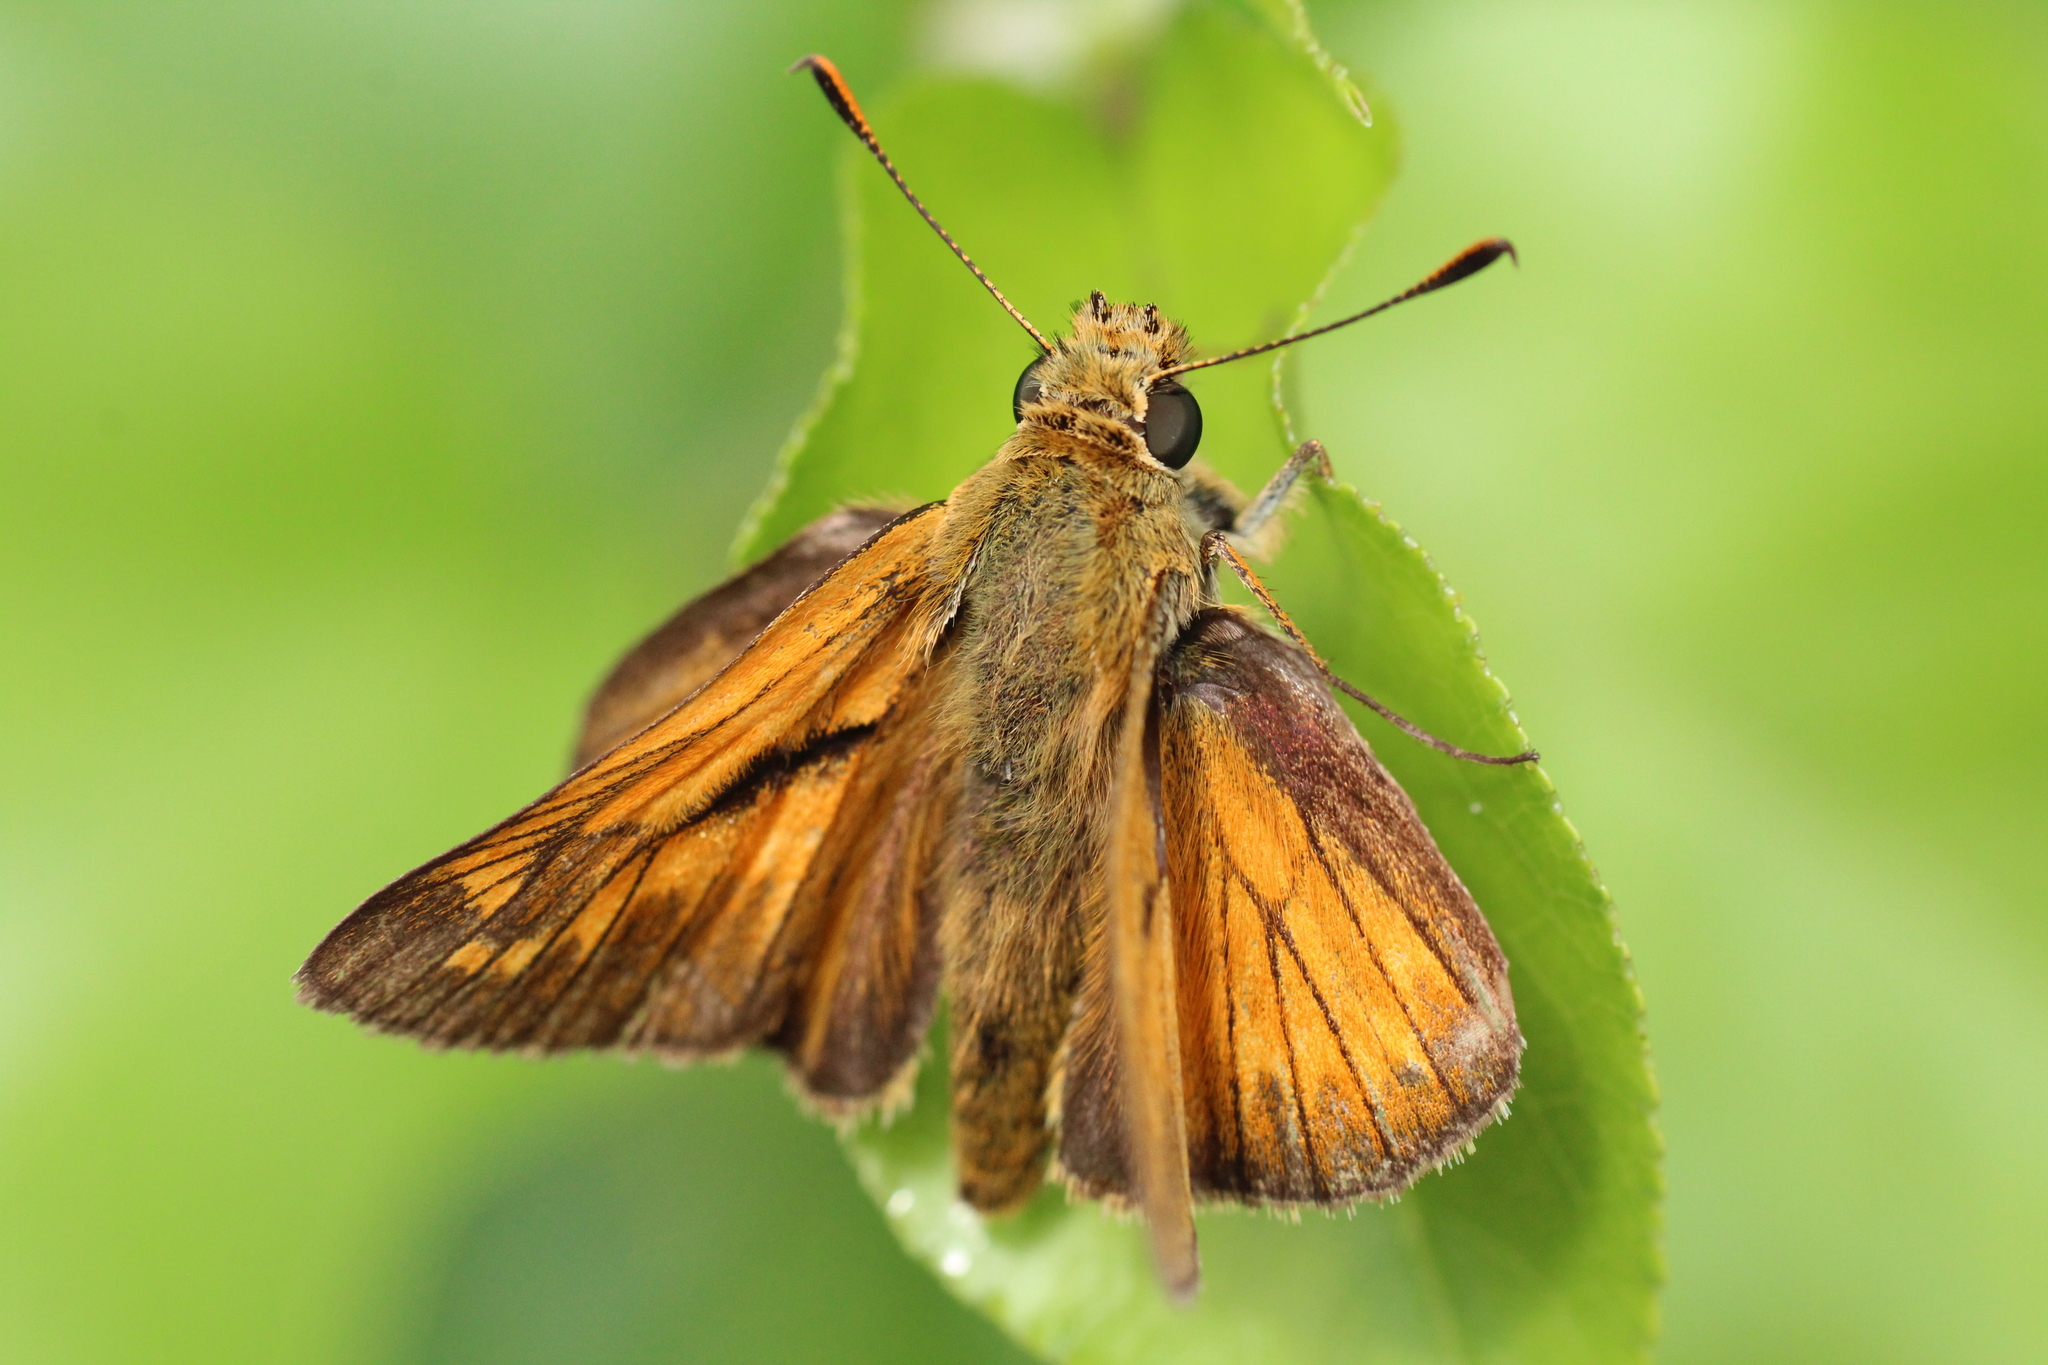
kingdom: Animalia
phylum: Arthropoda
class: Insecta
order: Lepidoptera
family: Hesperiidae
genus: Ochlodes
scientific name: Ochlodes venata
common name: Large skipper
